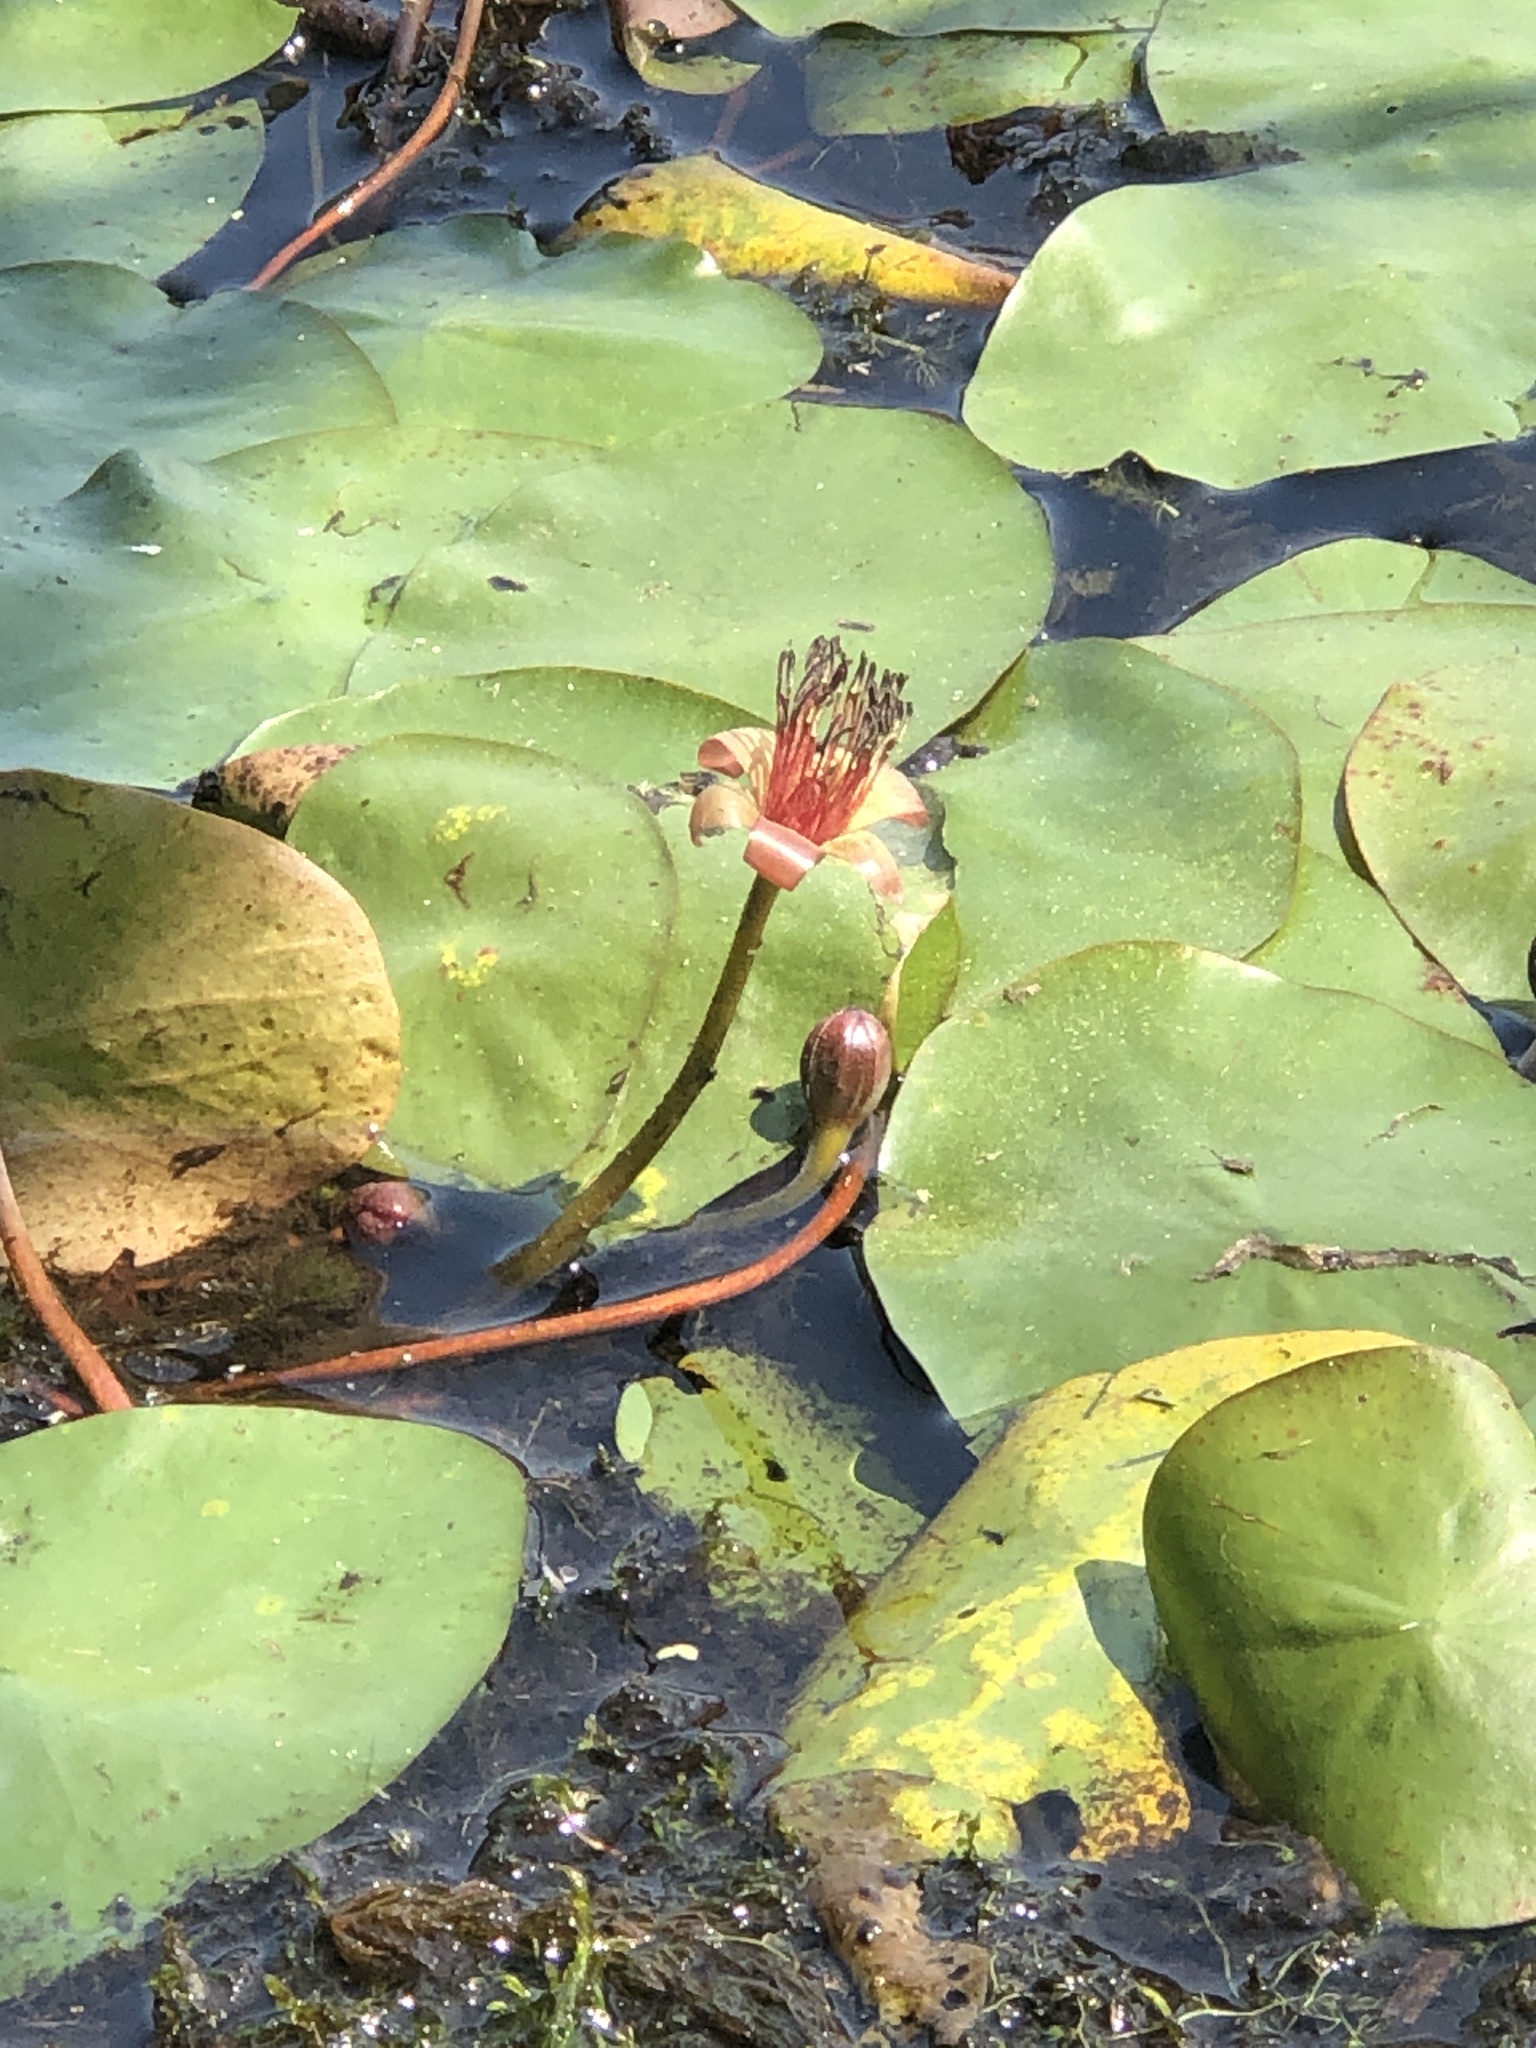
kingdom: Plantae
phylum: Tracheophyta
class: Magnoliopsida
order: Nymphaeales
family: Cabombaceae
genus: Brasenia
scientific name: Brasenia schreberi
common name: Water-shield
